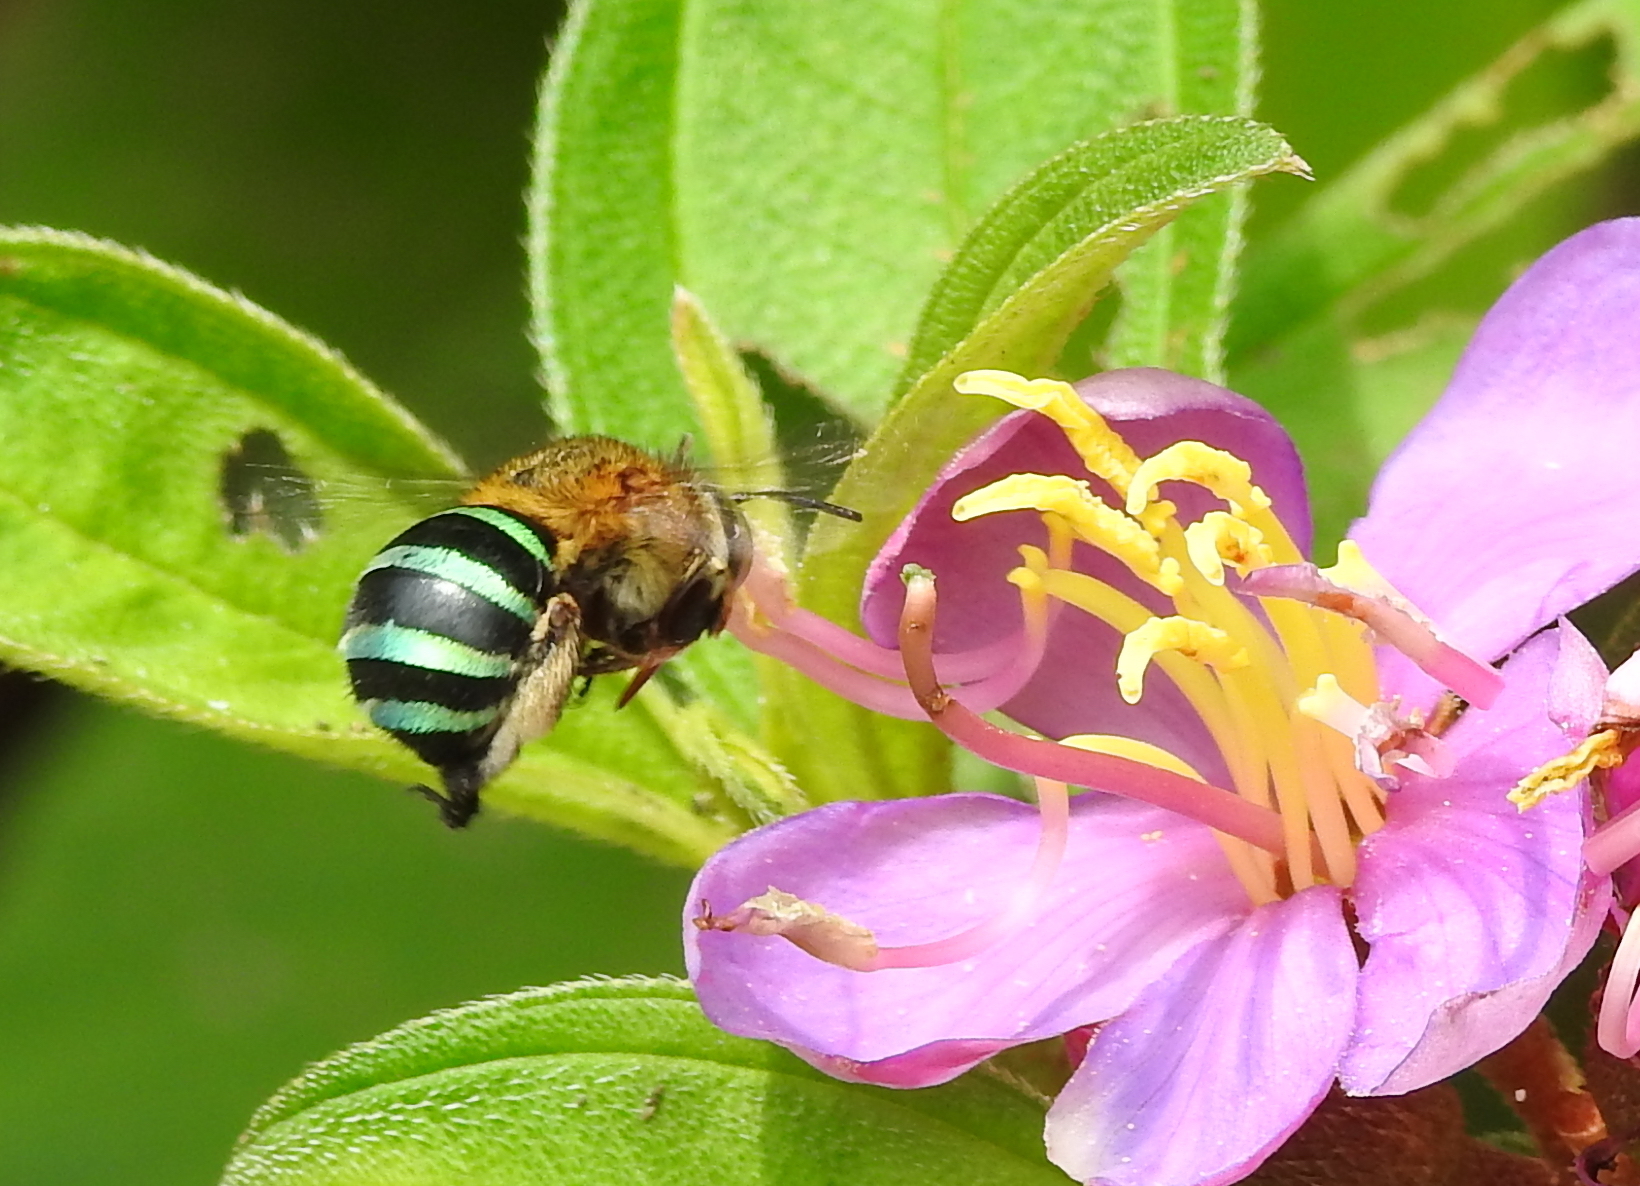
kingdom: Animalia
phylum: Arthropoda
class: Insecta
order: Hymenoptera
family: Apidae
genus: Amegilla
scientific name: Amegilla andrewsi
